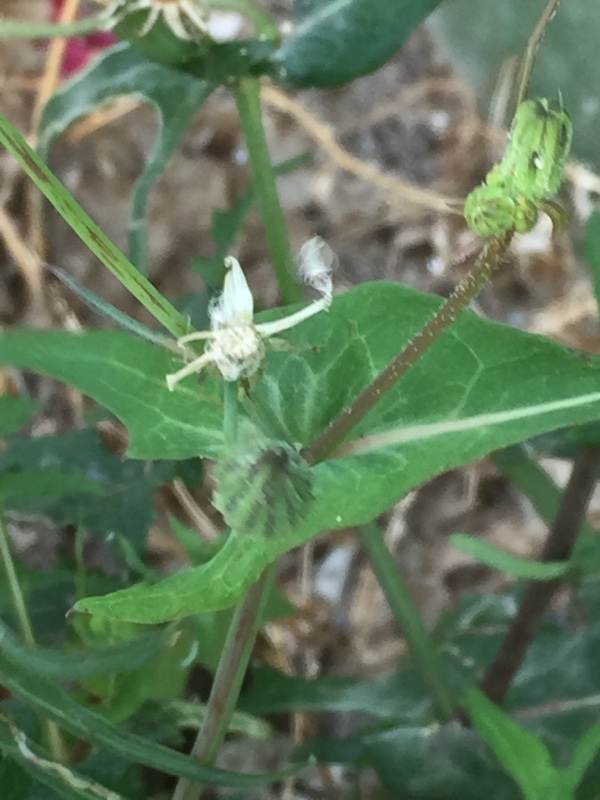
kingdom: Plantae
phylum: Tracheophyta
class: Magnoliopsida
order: Asterales
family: Asteraceae
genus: Sonchus
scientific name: Sonchus tenerrimus
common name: Clammy sowthistle
